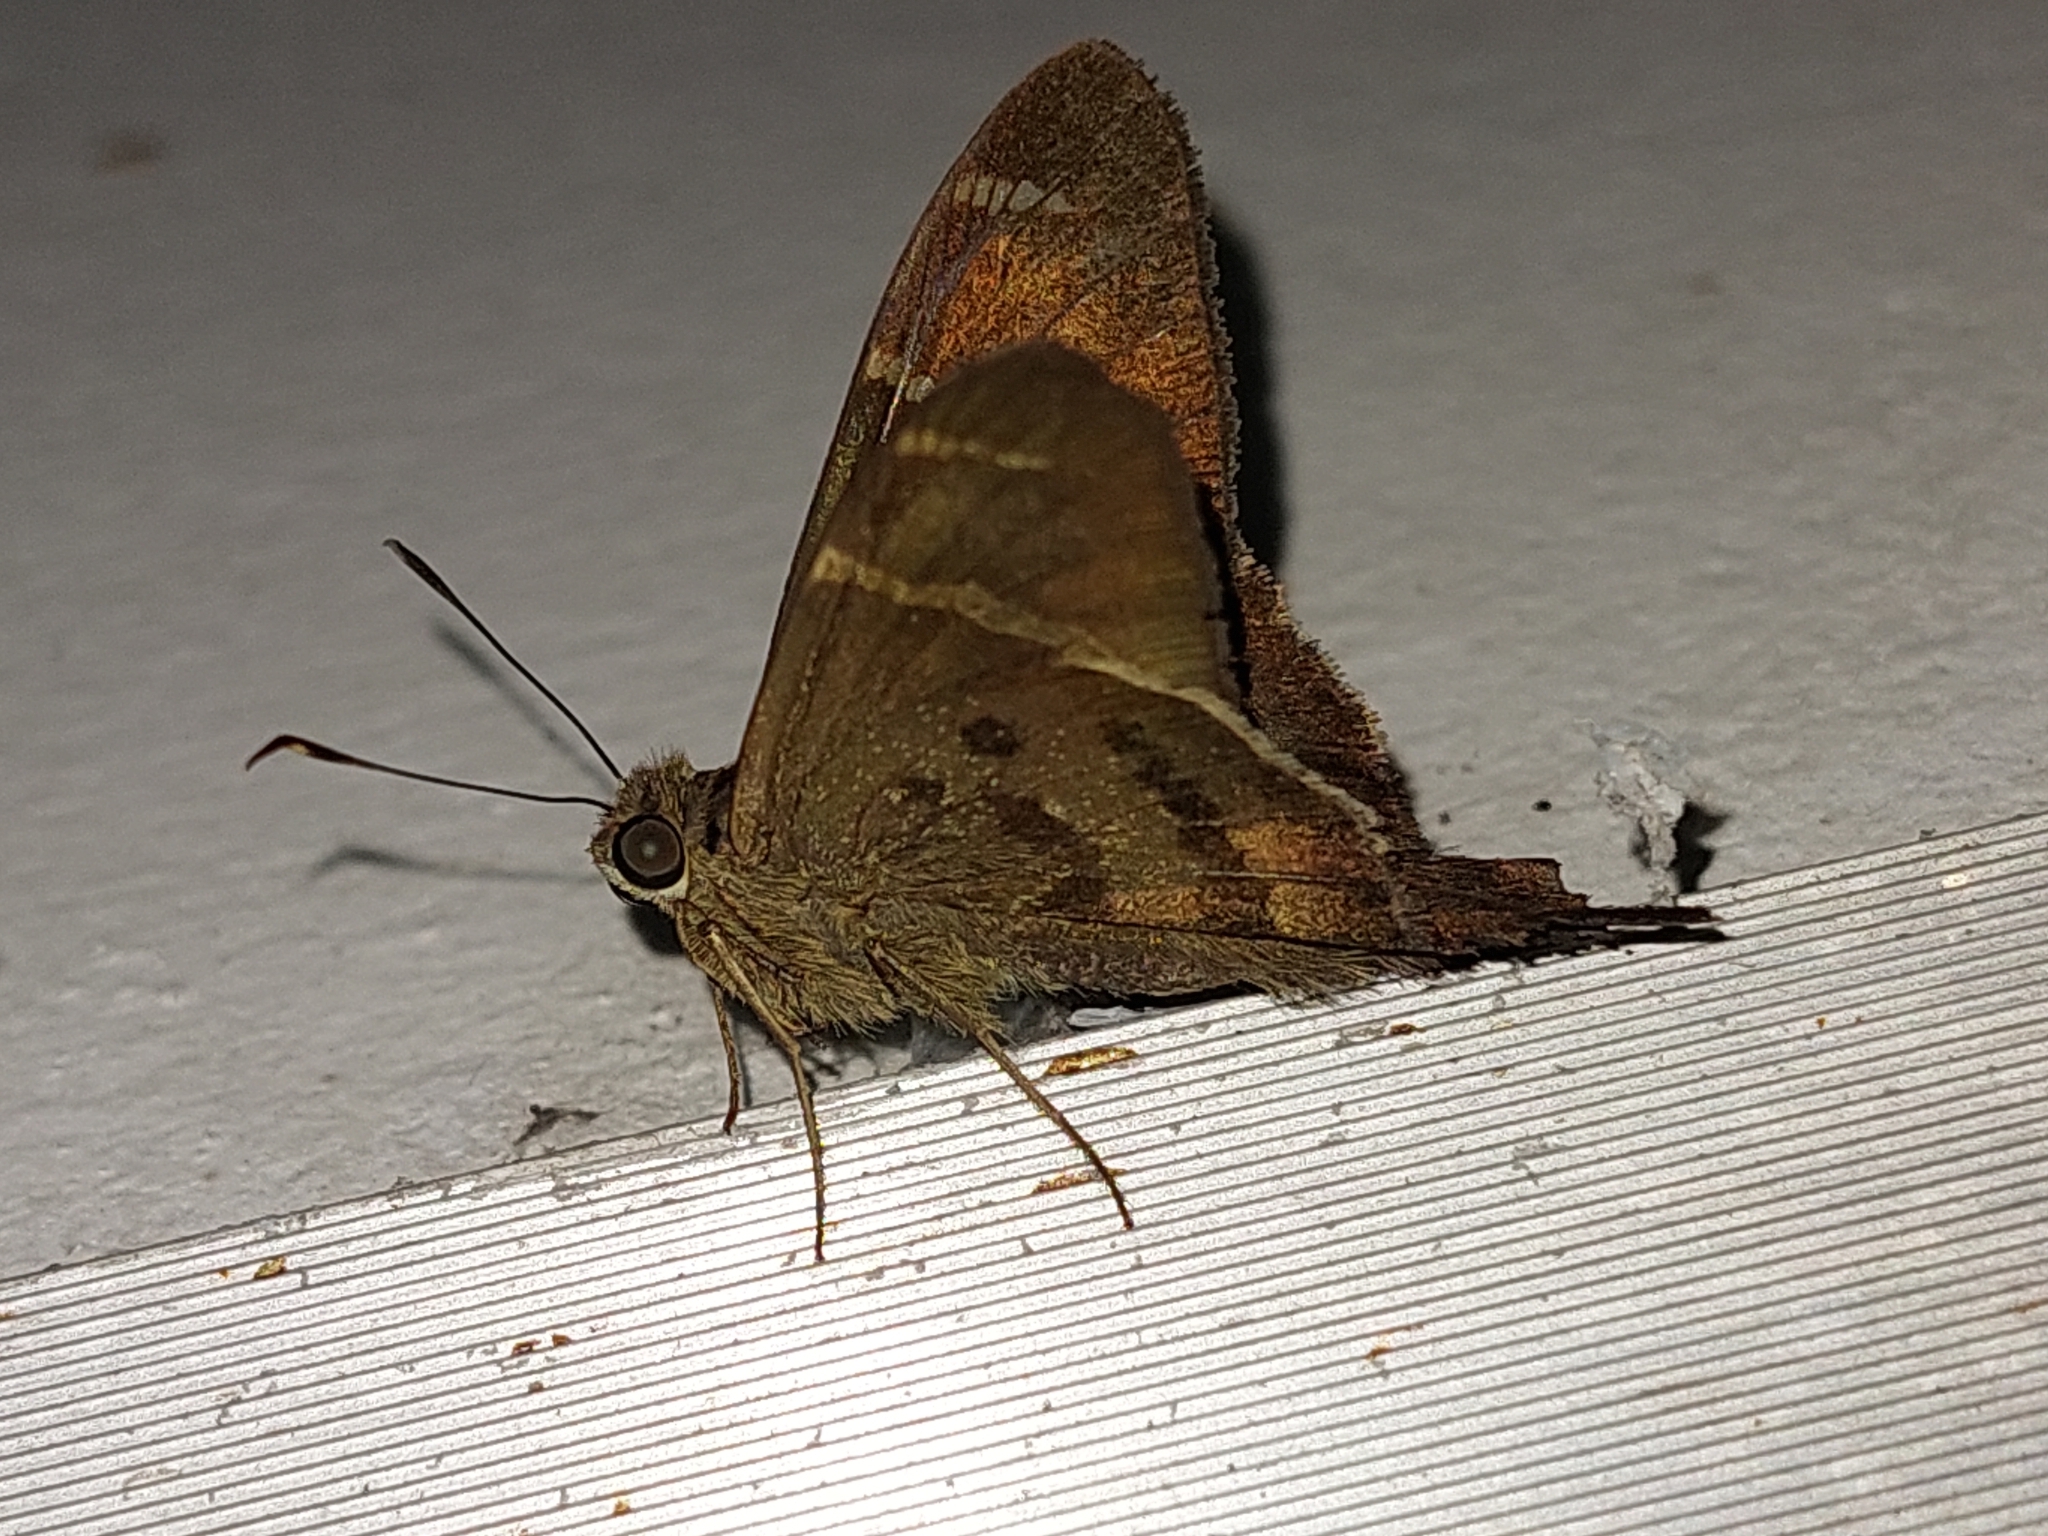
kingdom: Animalia
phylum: Arthropoda
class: Insecta
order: Lepidoptera
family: Hesperiidae
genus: Urbanus
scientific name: Urbanus tanna
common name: Tanna longtail
